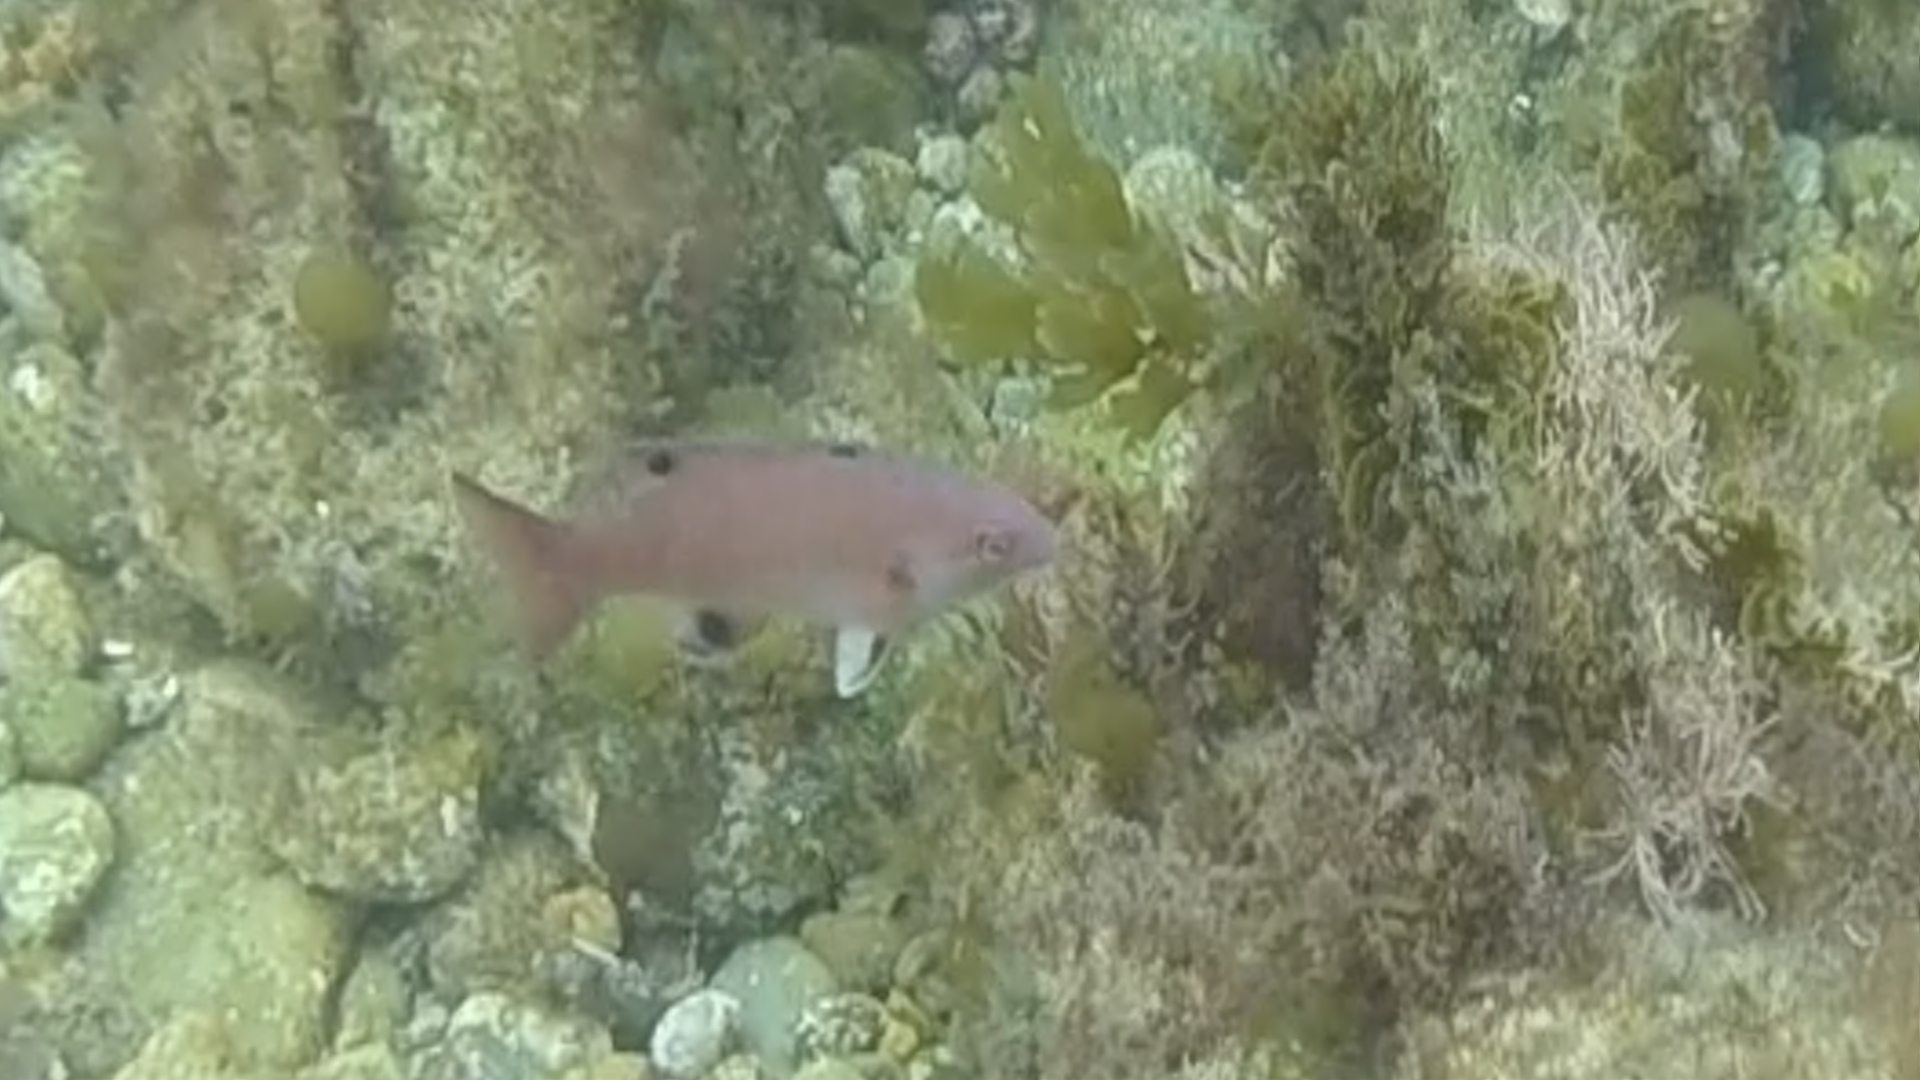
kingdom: Animalia
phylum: Chordata
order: Perciformes
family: Labridae
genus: Semicossyphus
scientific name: Semicossyphus pulcher
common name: California sheephead
